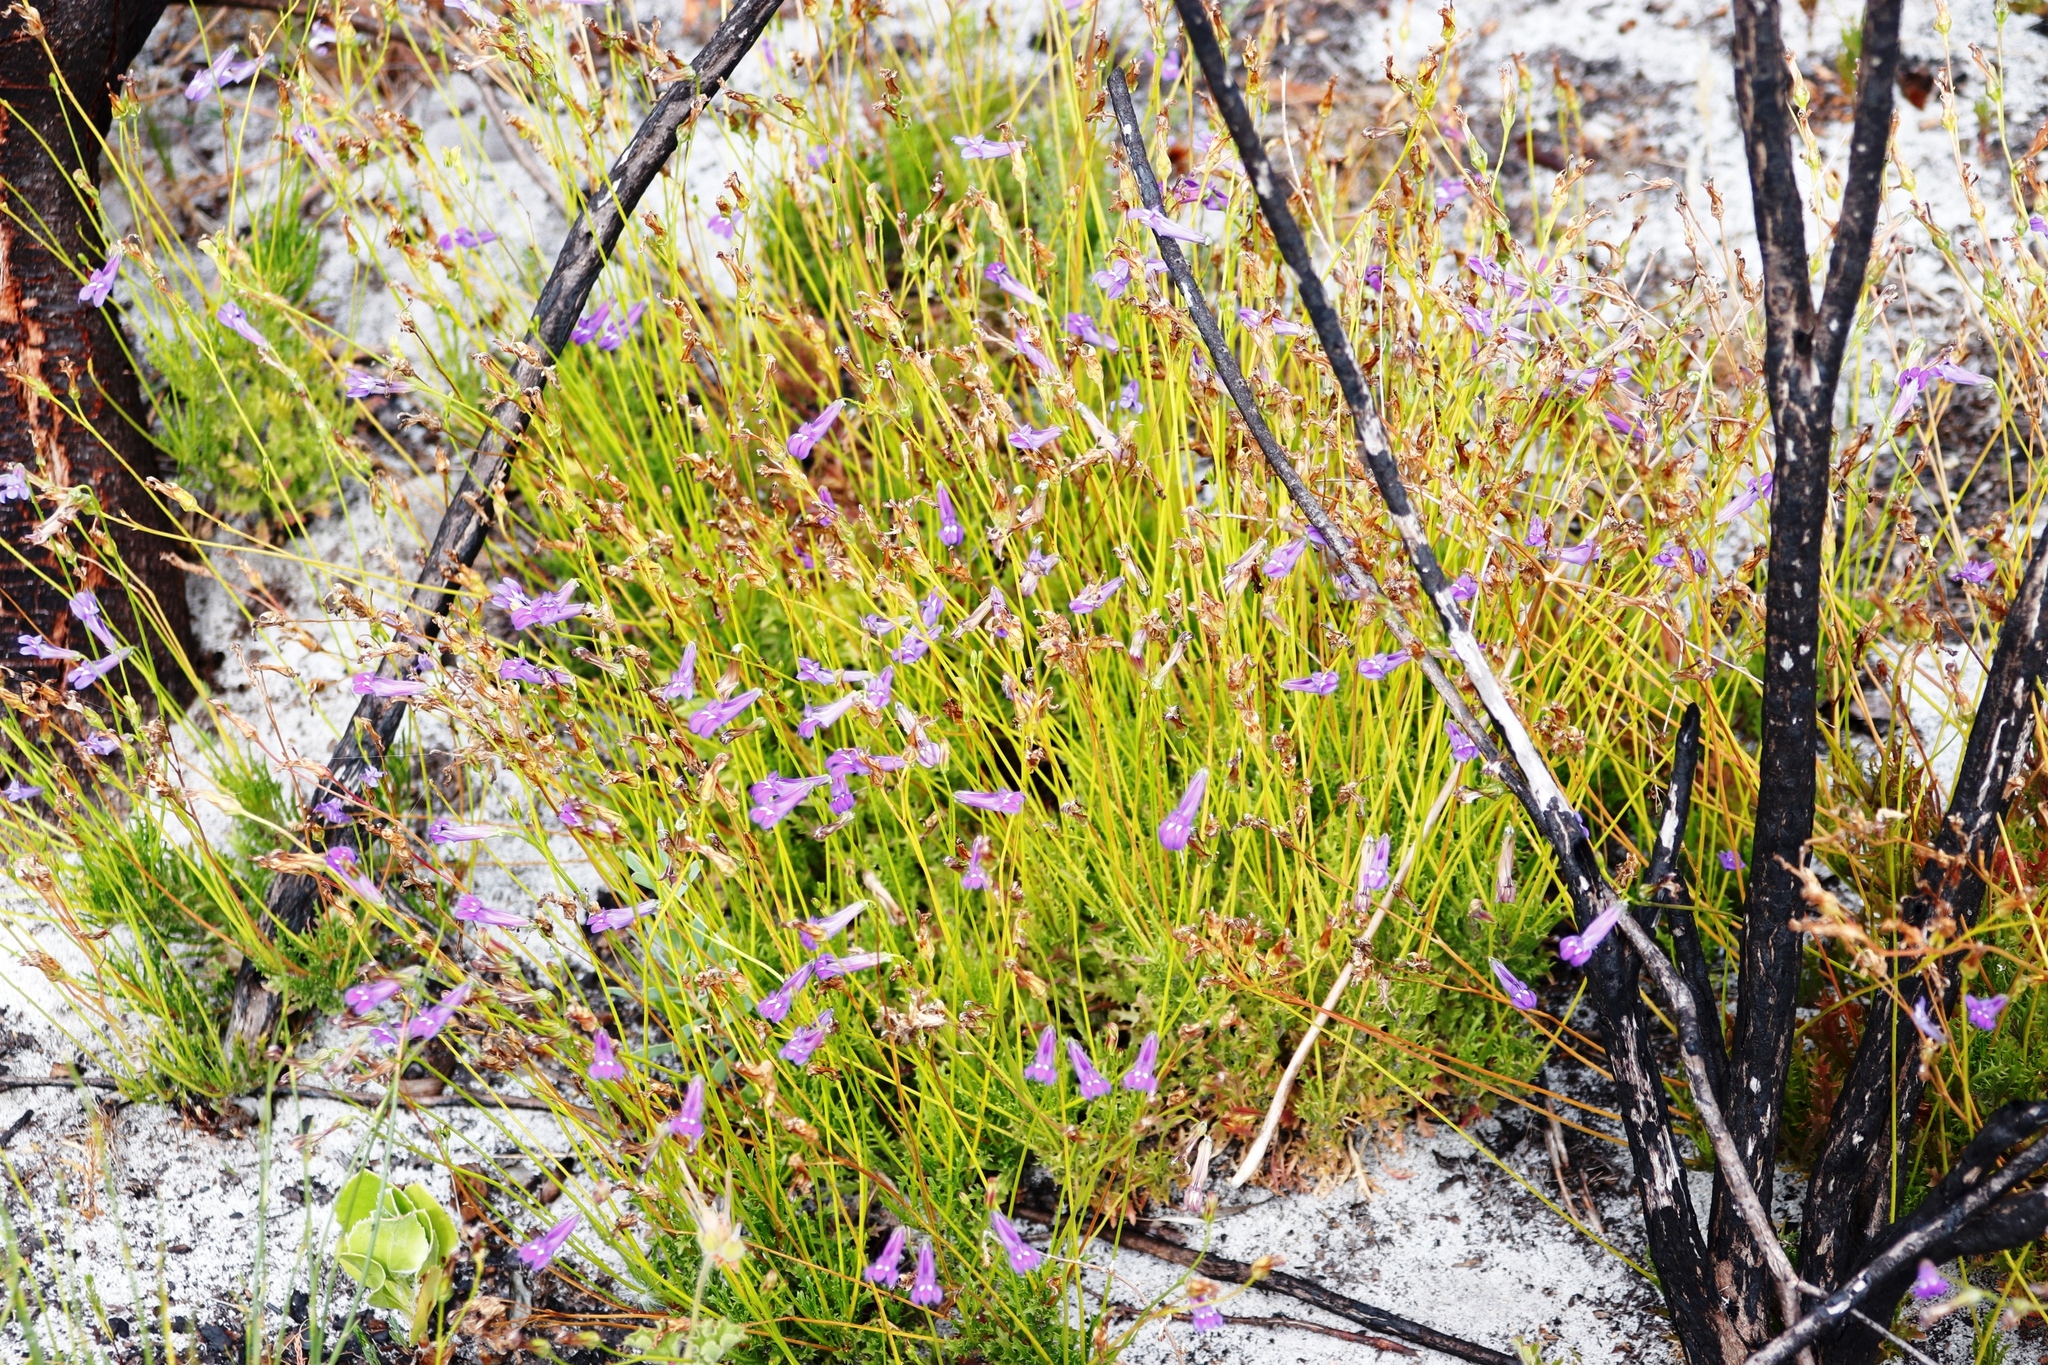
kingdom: Plantae
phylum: Tracheophyta
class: Magnoliopsida
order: Asterales
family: Campanulaceae
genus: Lobelia
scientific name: Lobelia coronopifolia
